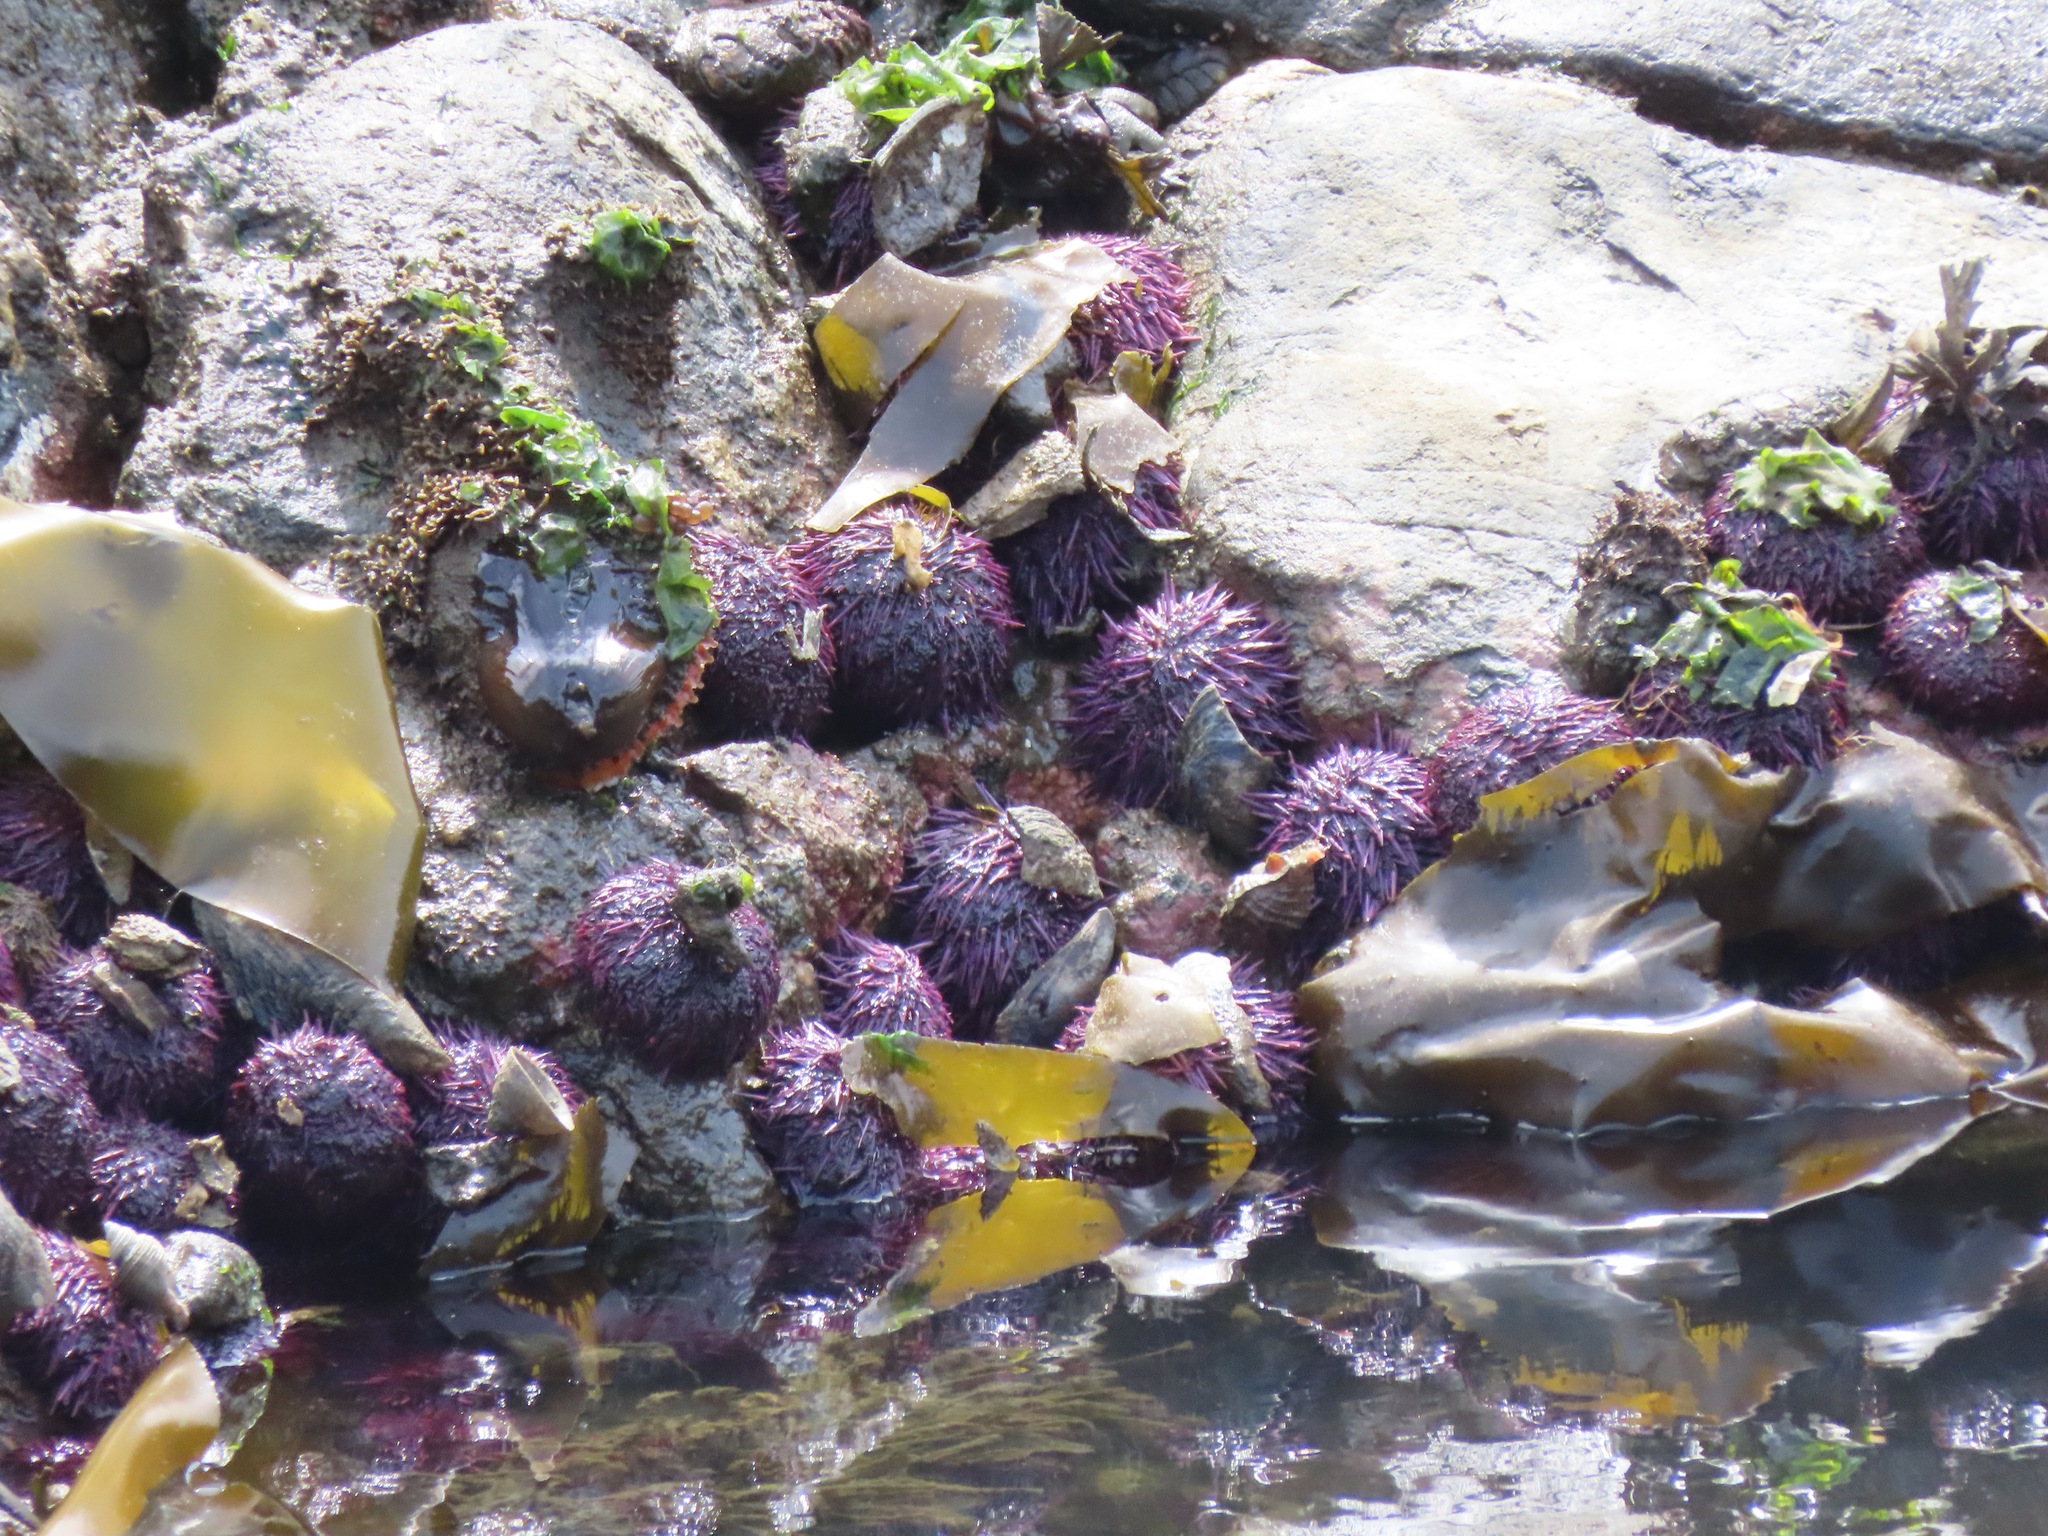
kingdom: Animalia
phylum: Echinodermata
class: Echinoidea
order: Camarodonta
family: Strongylocentrotidae
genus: Strongylocentrotus
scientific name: Strongylocentrotus purpuratus
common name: Purple sea urchin
